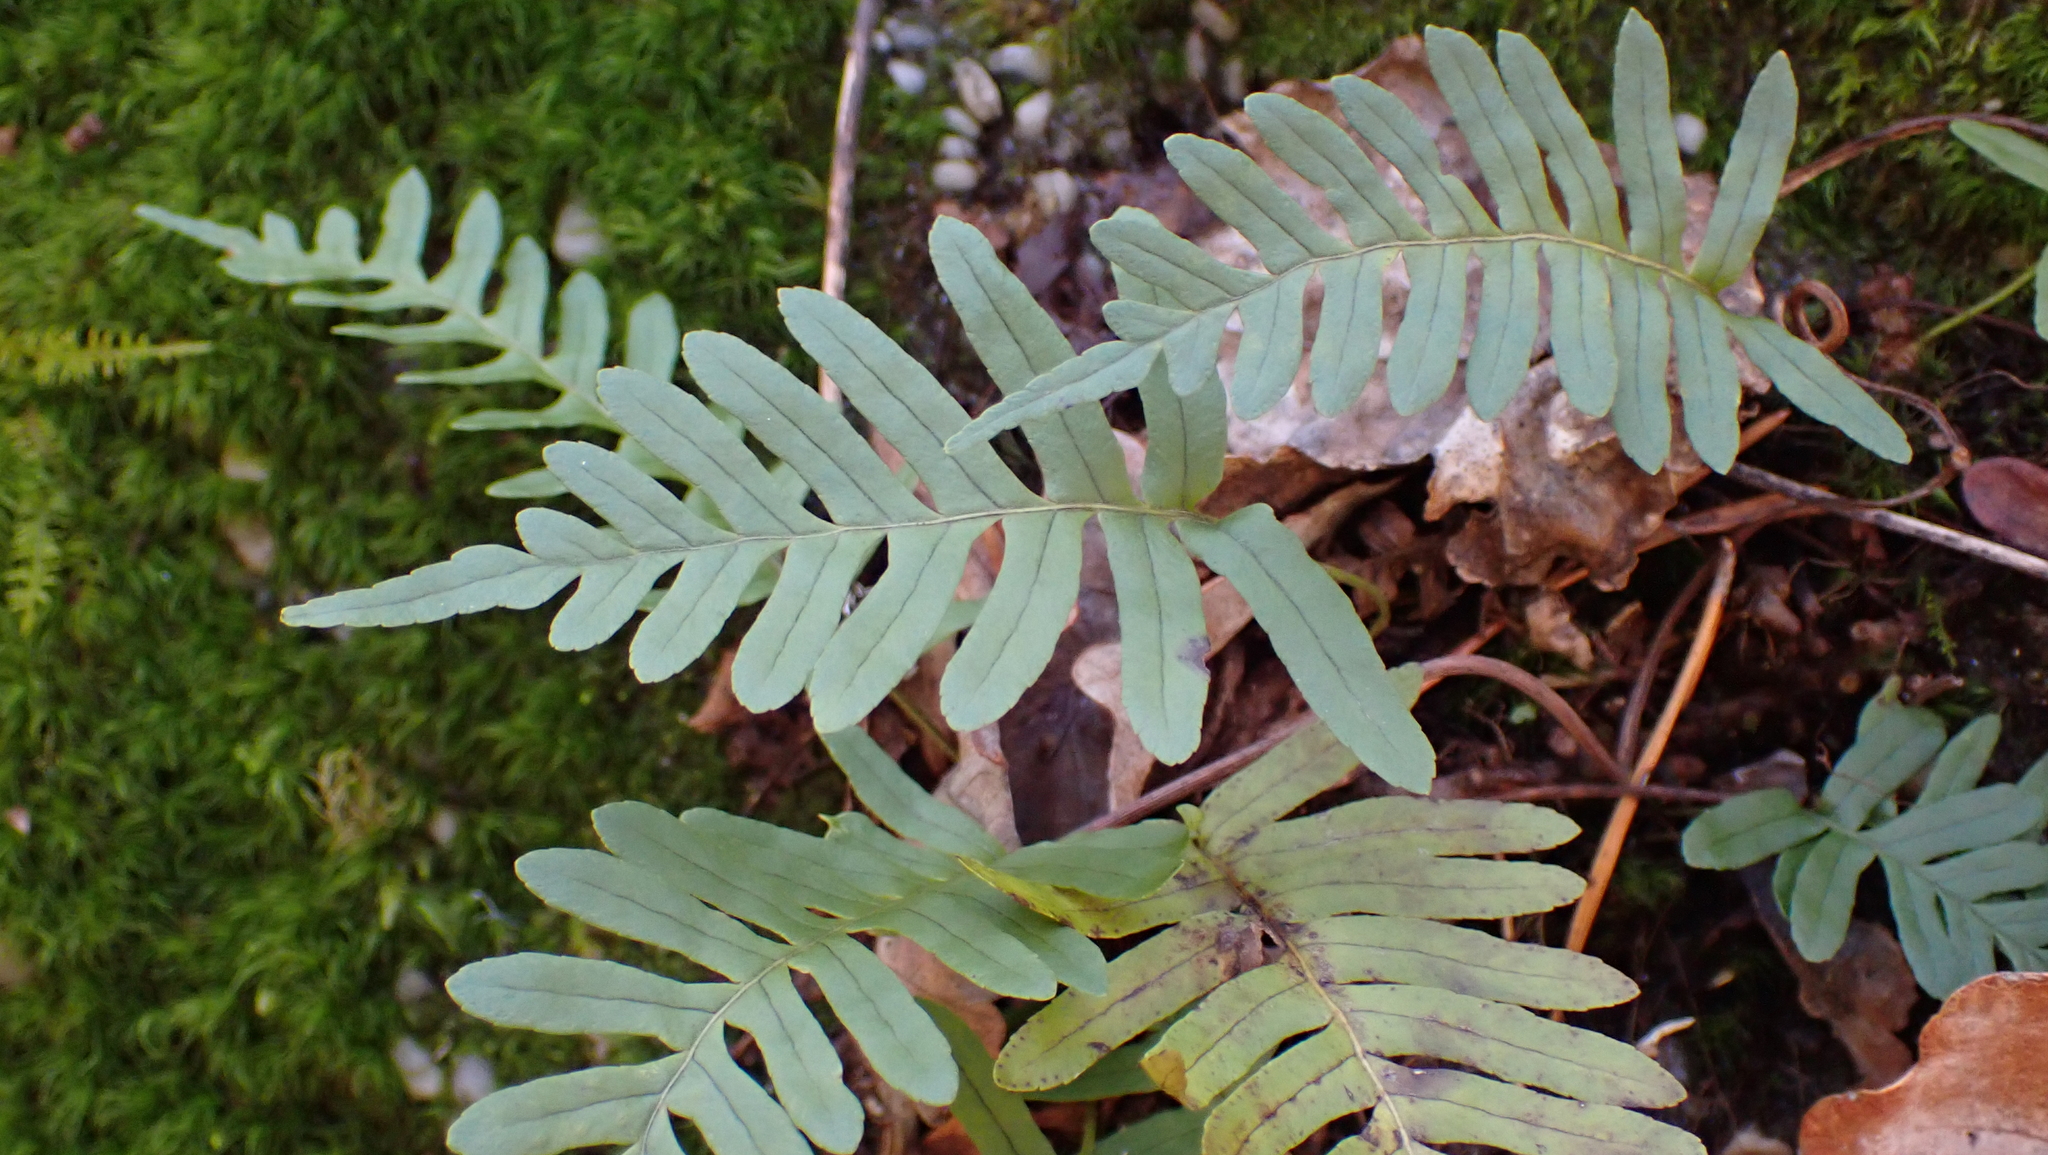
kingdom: Plantae
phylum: Tracheophyta
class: Polypodiopsida
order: Polypodiales
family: Polypodiaceae
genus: Polypodium
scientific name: Polypodium appalachianum
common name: Appalachian polypody
